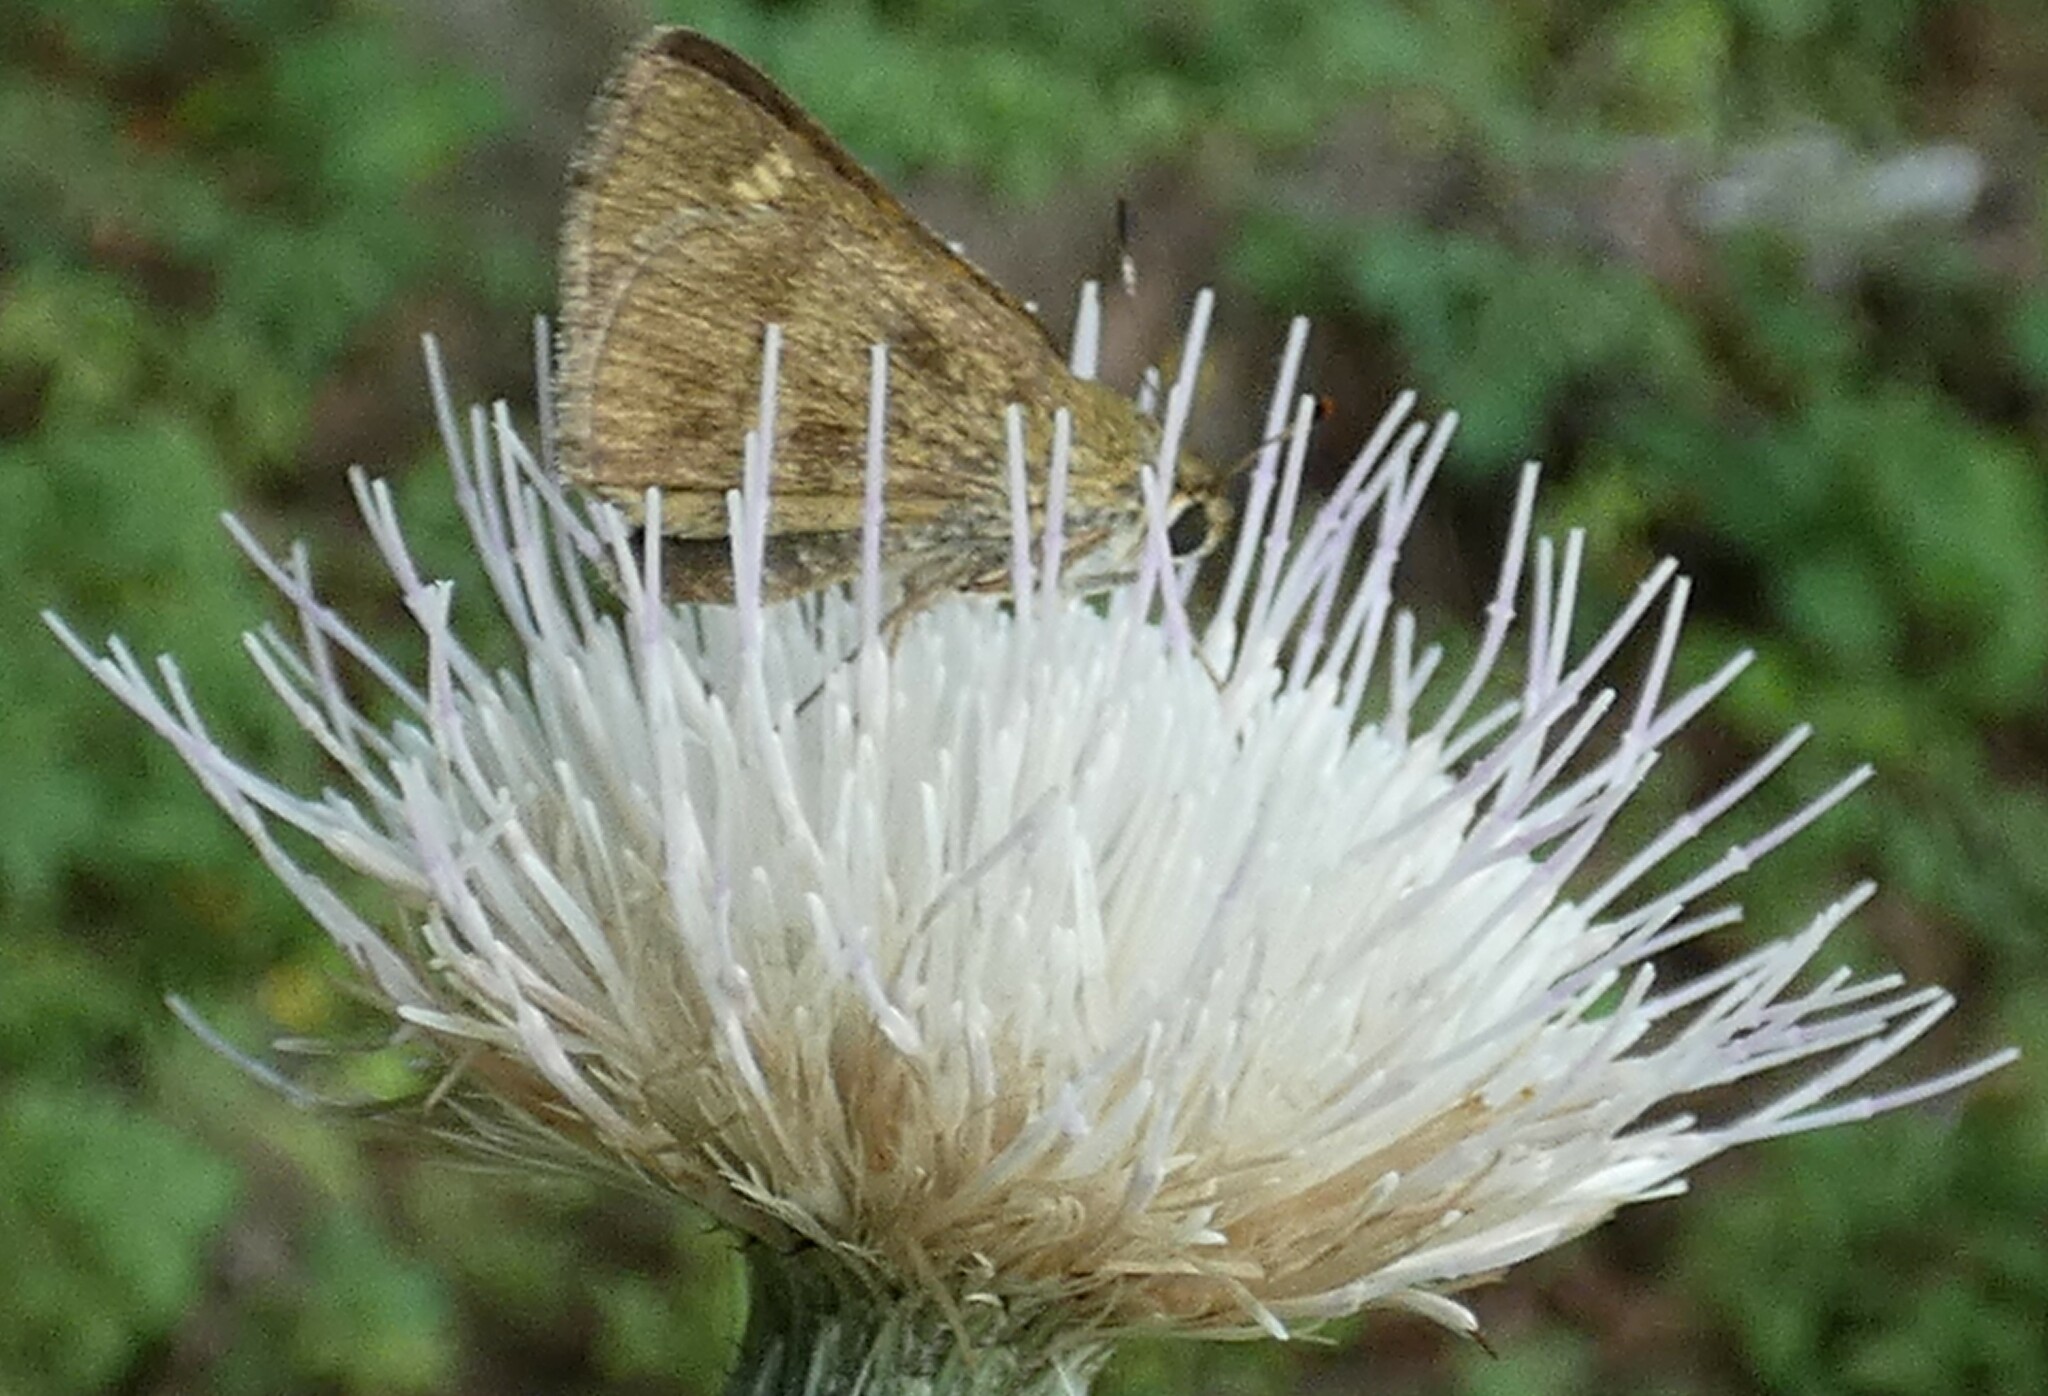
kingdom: Animalia
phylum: Arthropoda
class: Insecta
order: Lepidoptera
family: Hesperiidae
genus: Polites
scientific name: Polites vibex
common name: Whirlabout
